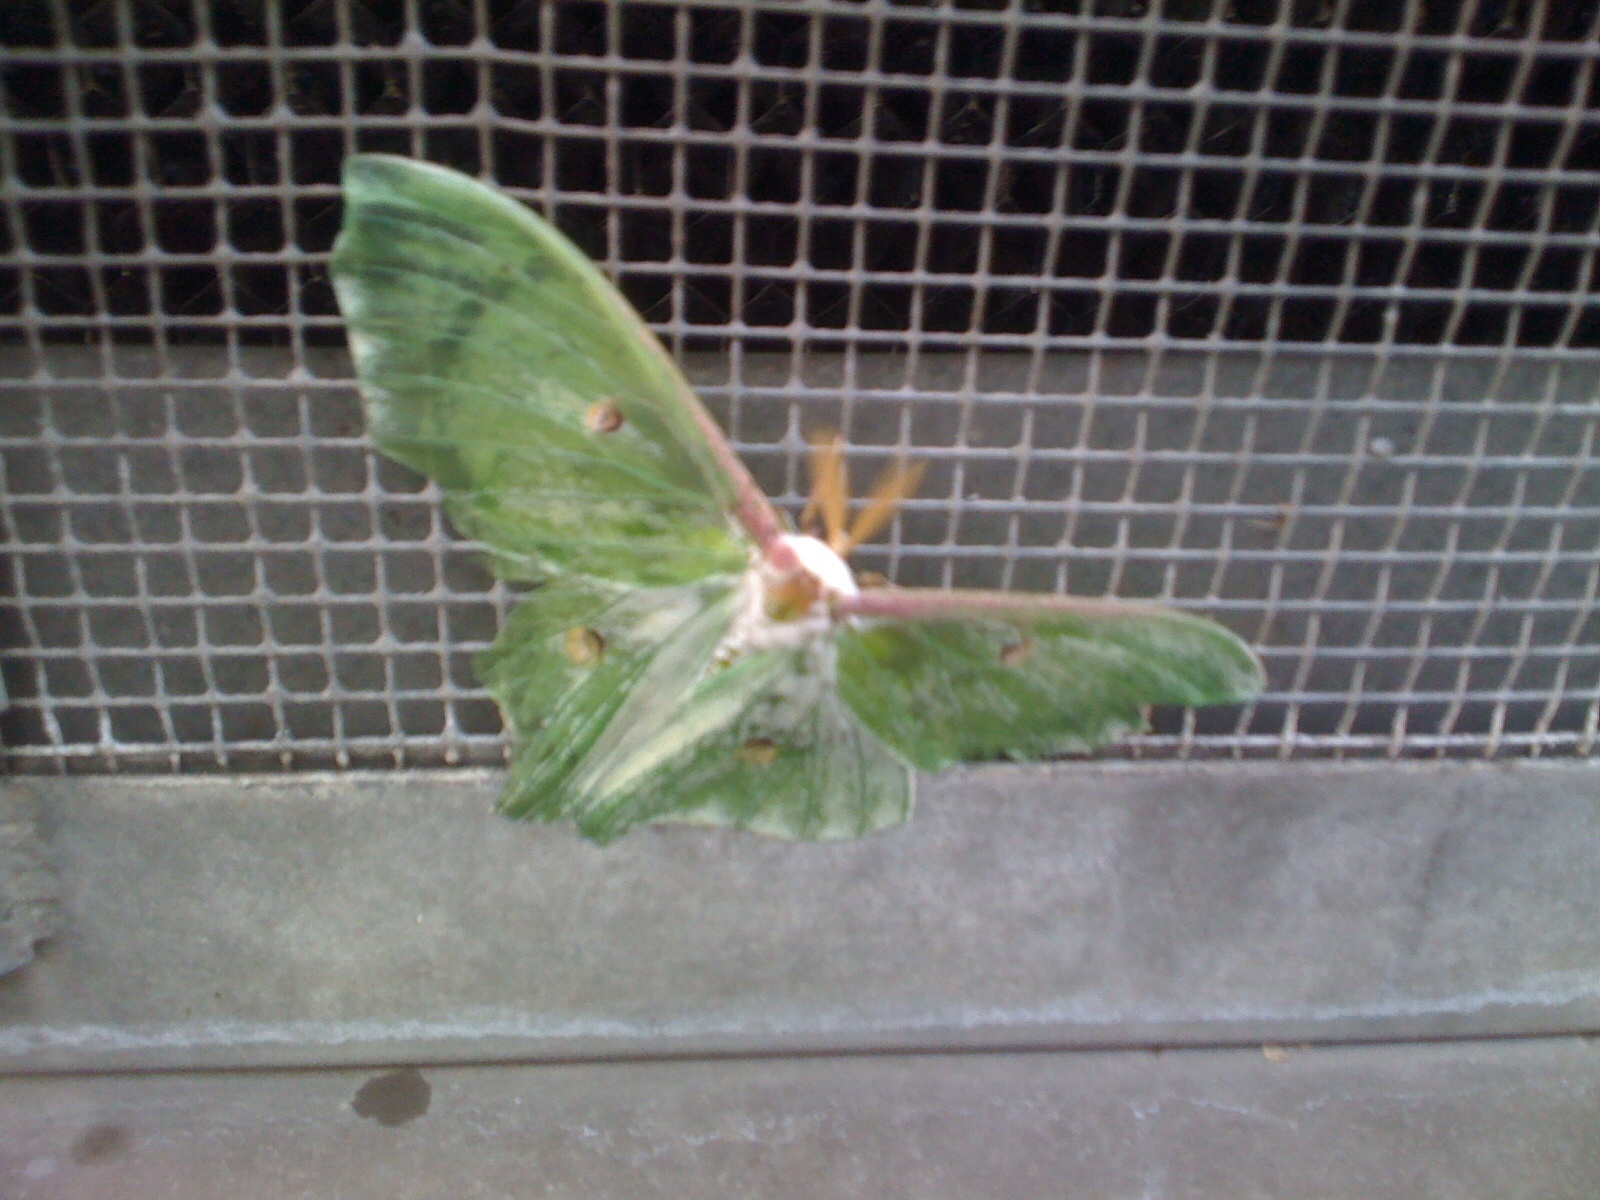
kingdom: Animalia
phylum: Arthropoda
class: Insecta
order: Lepidoptera
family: Saturniidae
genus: Actias
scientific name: Actias luna
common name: Luna moth
